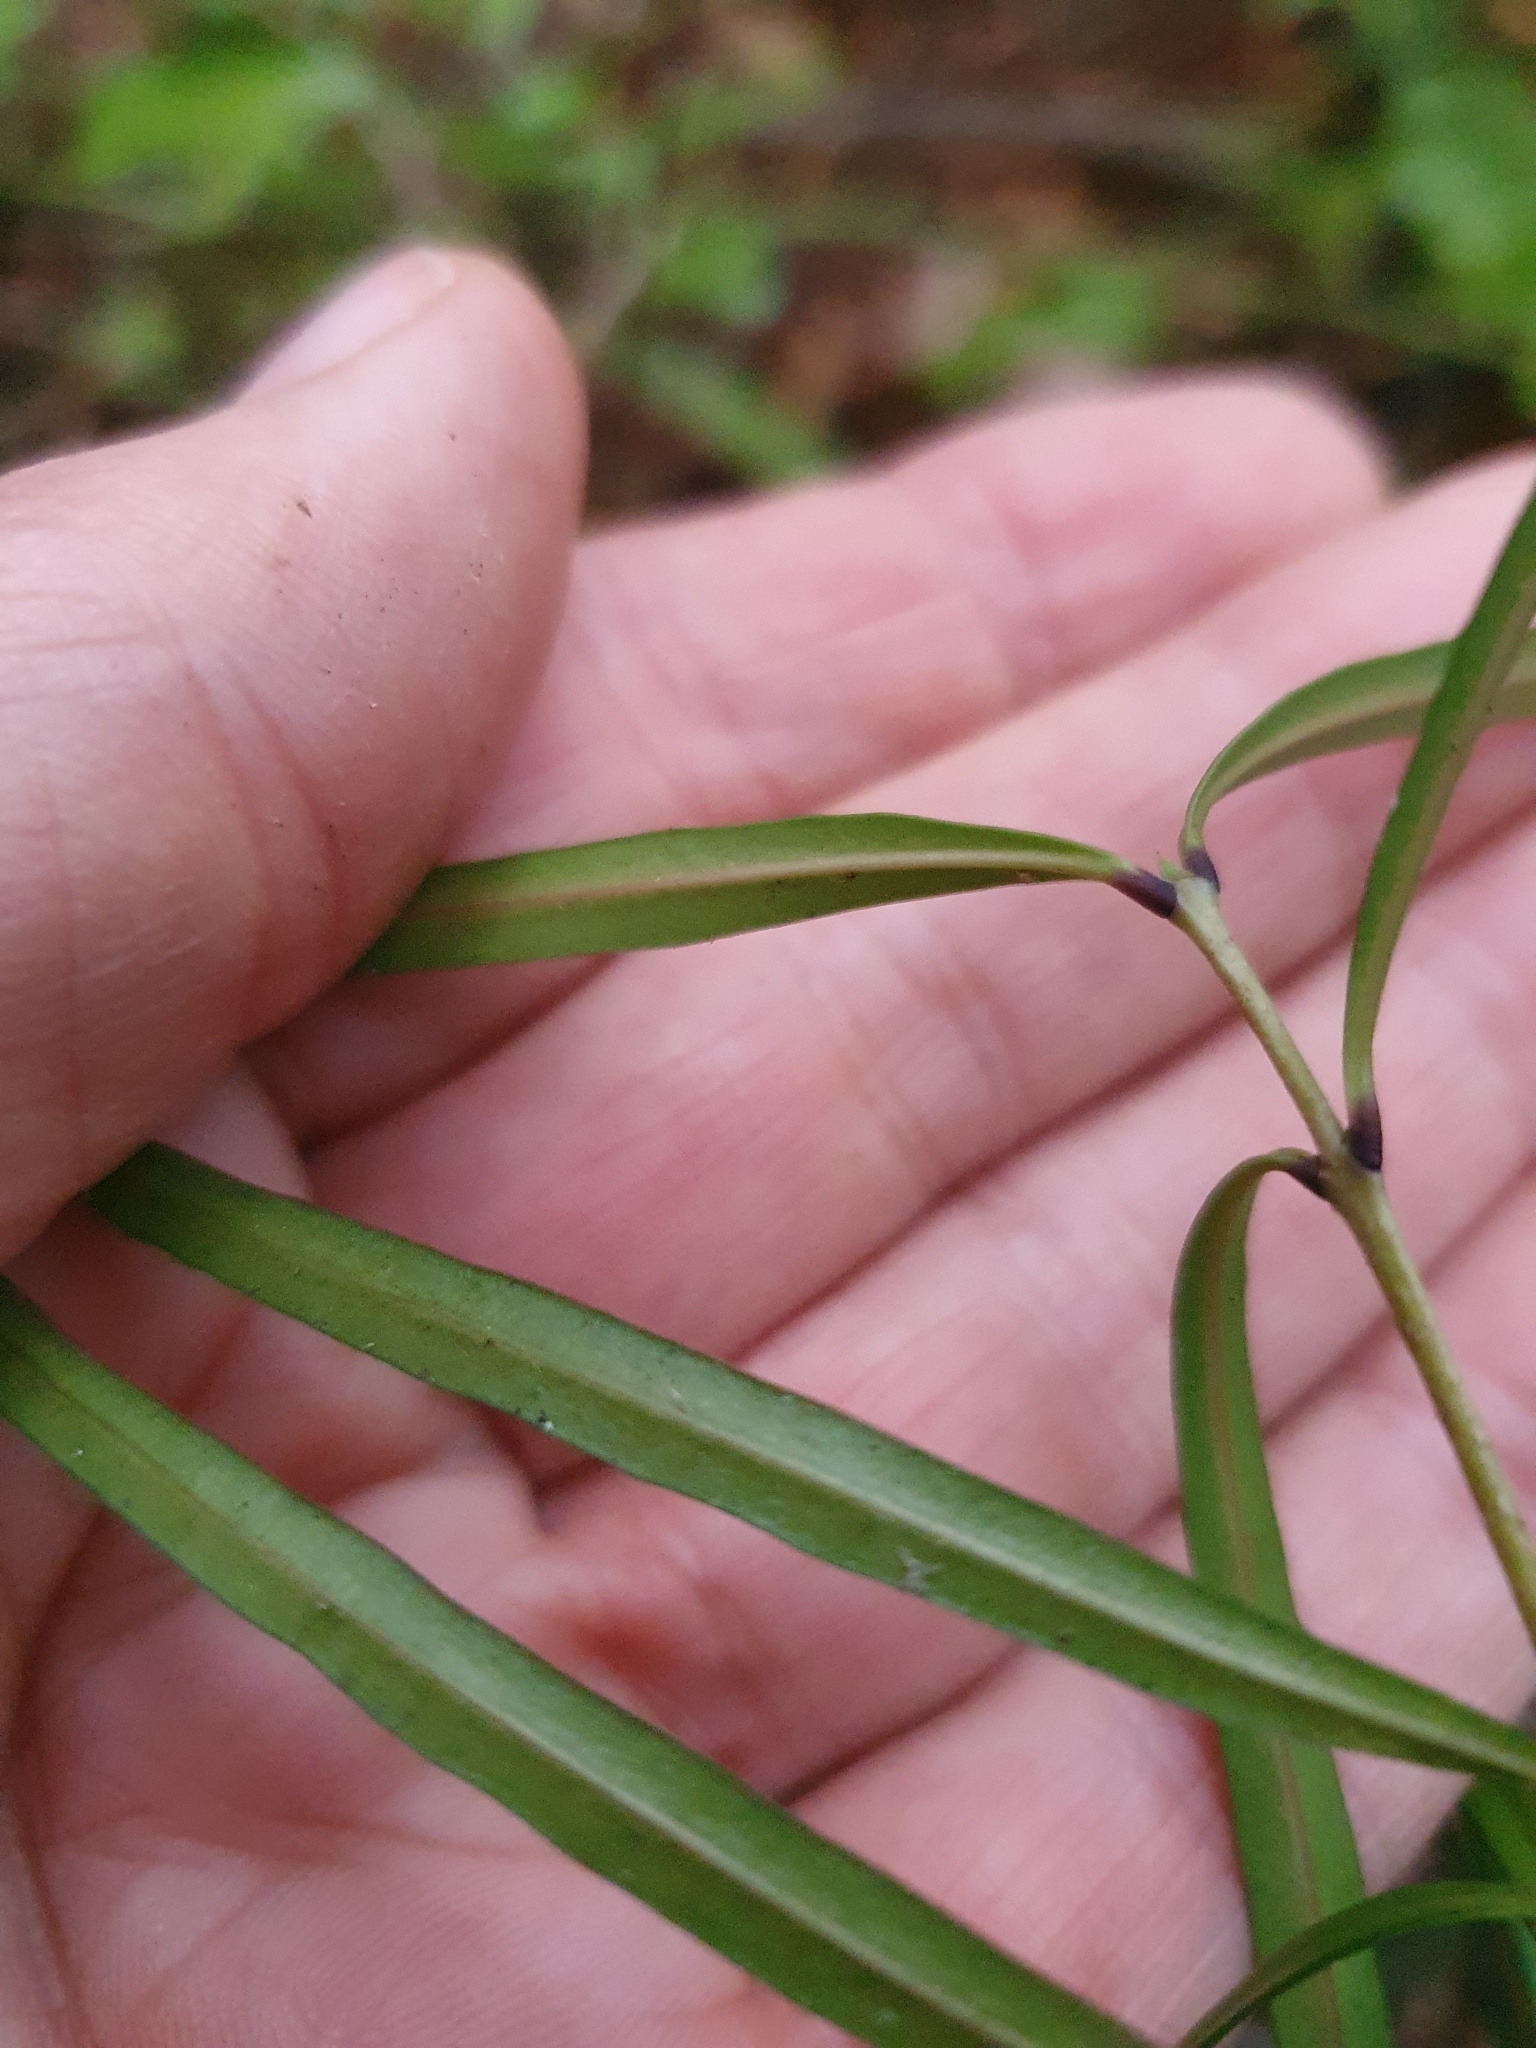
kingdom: Plantae
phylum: Tracheophyta
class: Magnoliopsida
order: Lamiales
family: Oleaceae
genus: Nestegis
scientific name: Nestegis lanceolata
